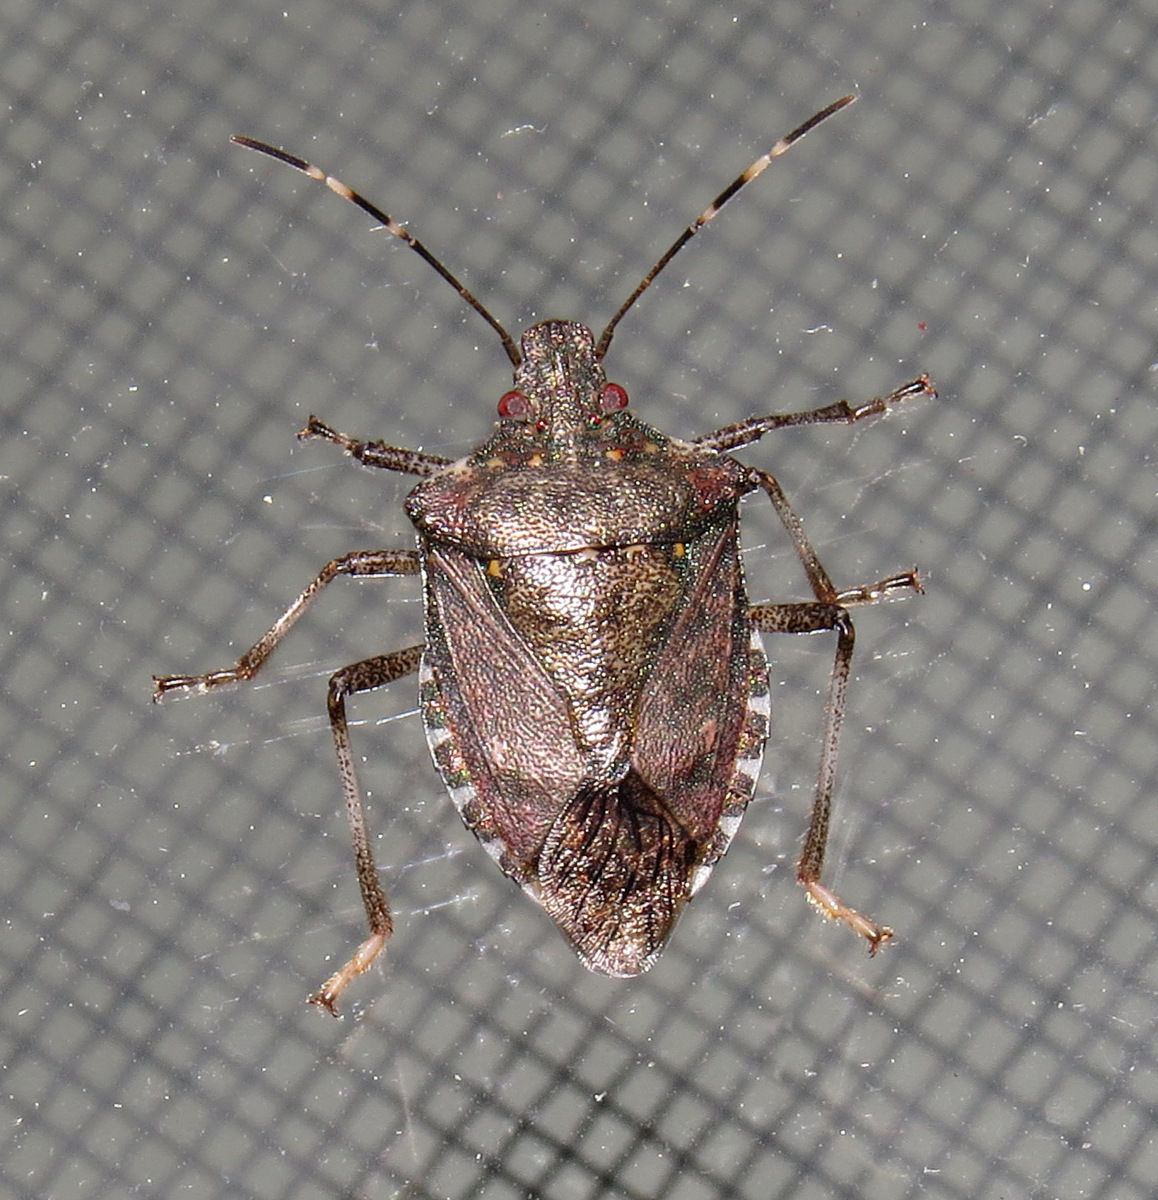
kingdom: Animalia
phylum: Arthropoda
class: Insecta
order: Hemiptera
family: Pentatomidae
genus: Halyomorpha
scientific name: Halyomorpha halys
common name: Brown marmorated stink bug
